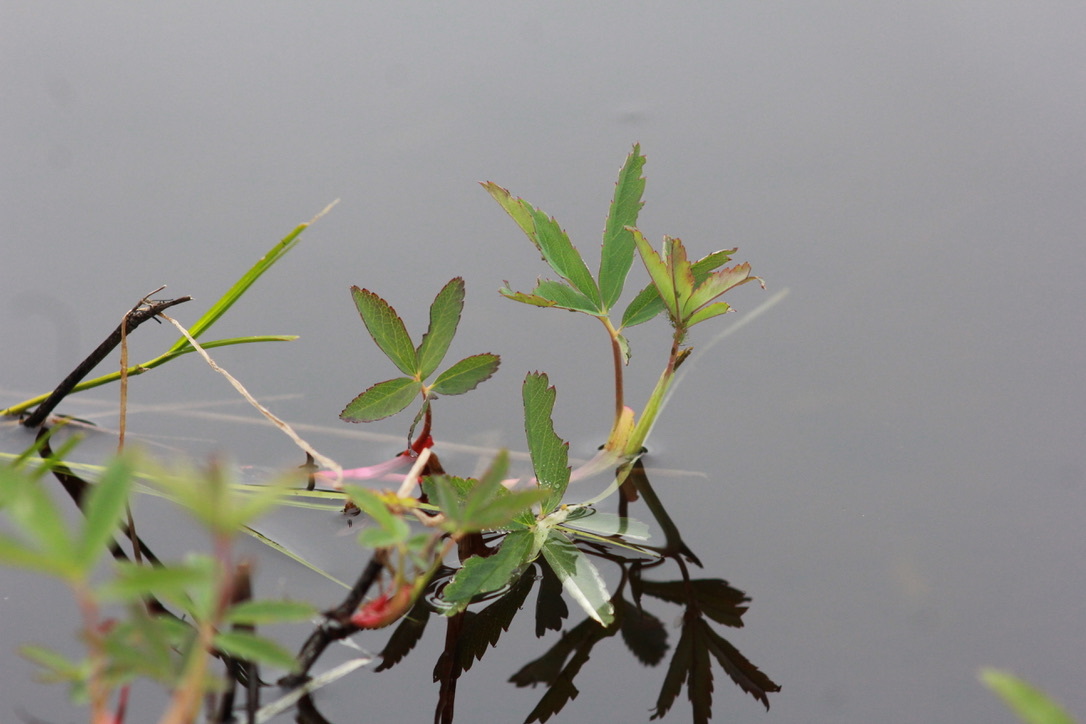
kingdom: Plantae
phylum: Tracheophyta
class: Magnoliopsida
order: Rosales
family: Rosaceae
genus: Comarum
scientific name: Comarum palustre
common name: Marsh cinquefoil
